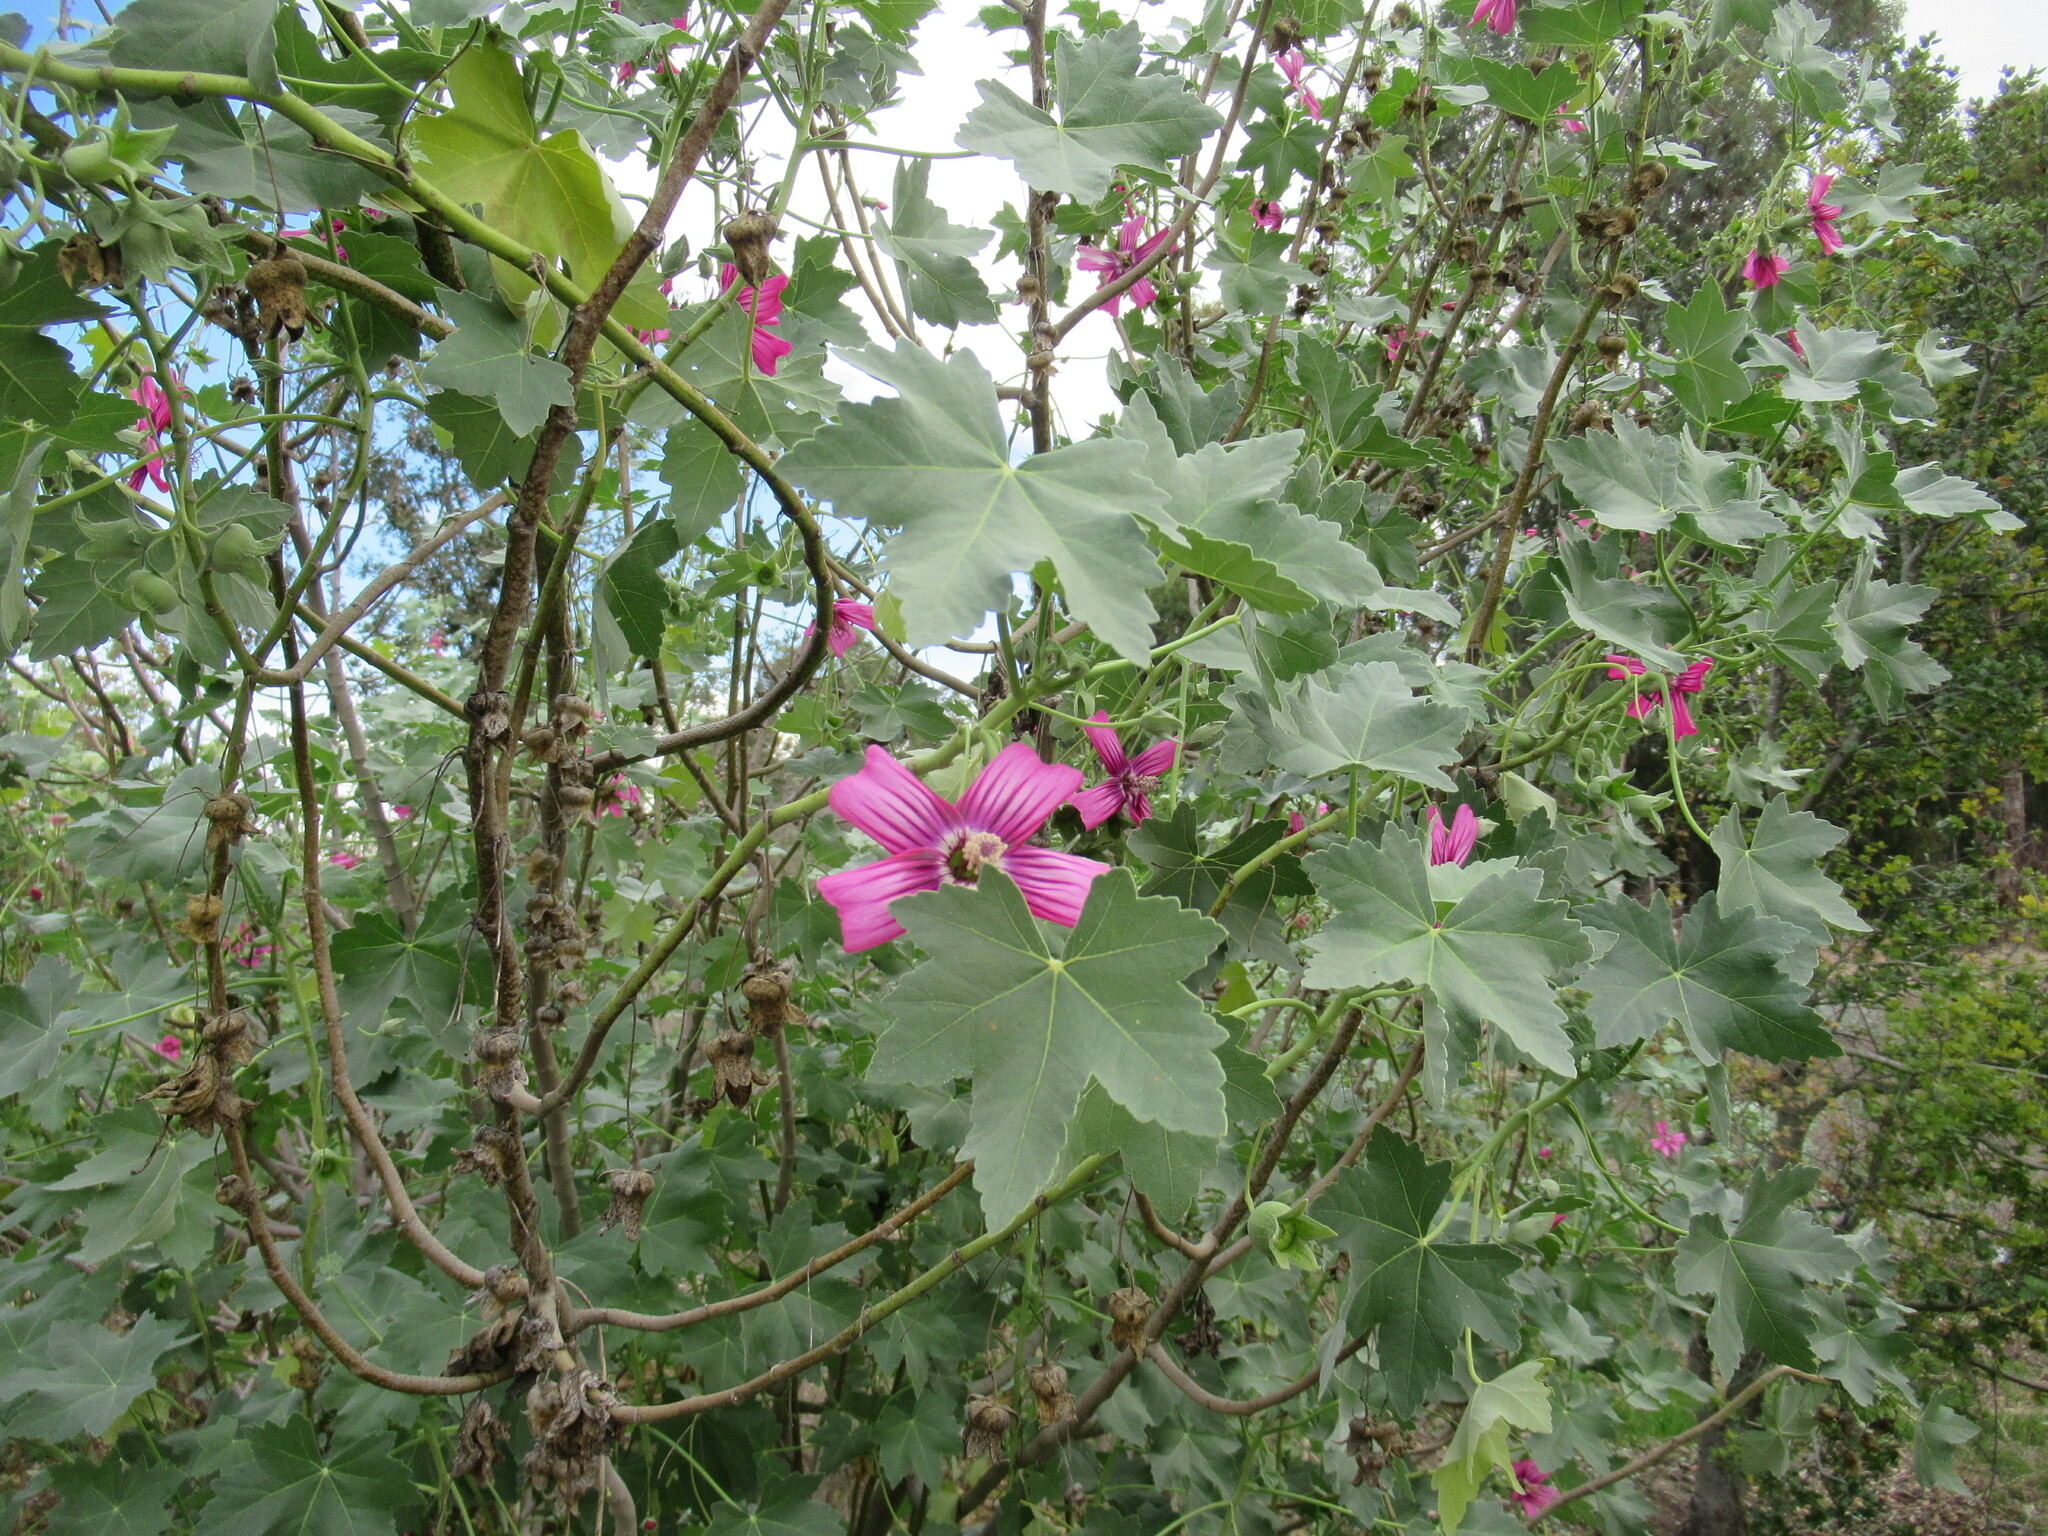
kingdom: Plantae
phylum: Tracheophyta
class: Magnoliopsida
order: Malvales
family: Malvaceae
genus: Malva
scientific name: Malva assurgentiflora
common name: Island mallow
